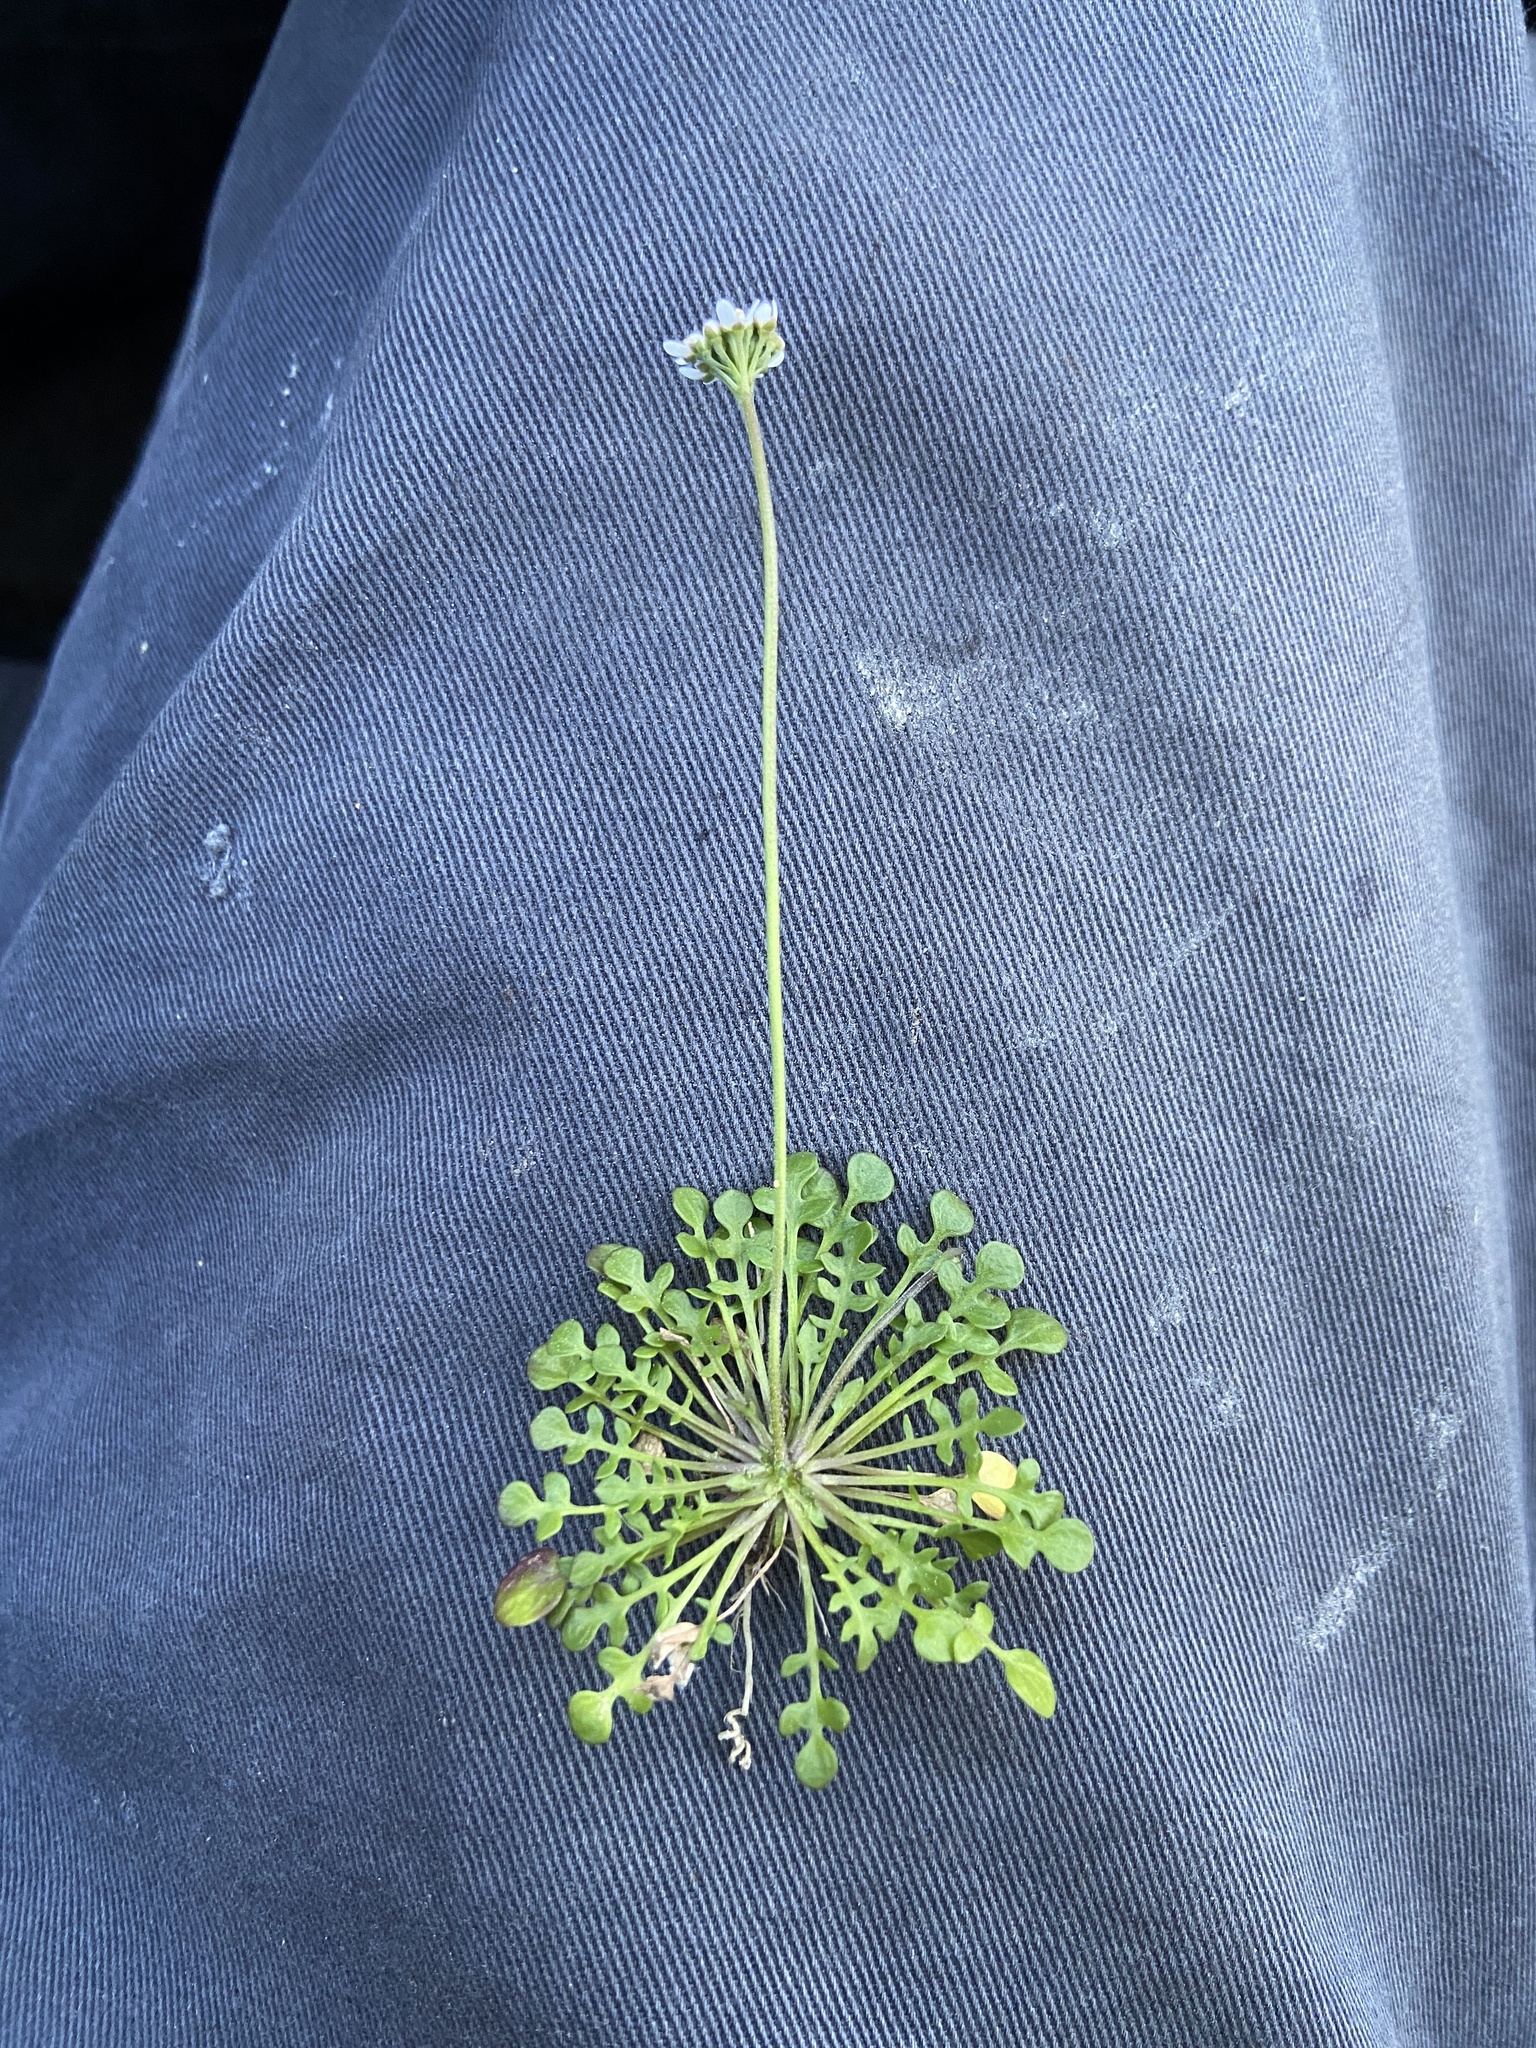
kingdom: Plantae
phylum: Tracheophyta
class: Magnoliopsida
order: Brassicales
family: Brassicaceae
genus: Teesdalia
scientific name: Teesdalia nudicaulis
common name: Shepherd's cress
